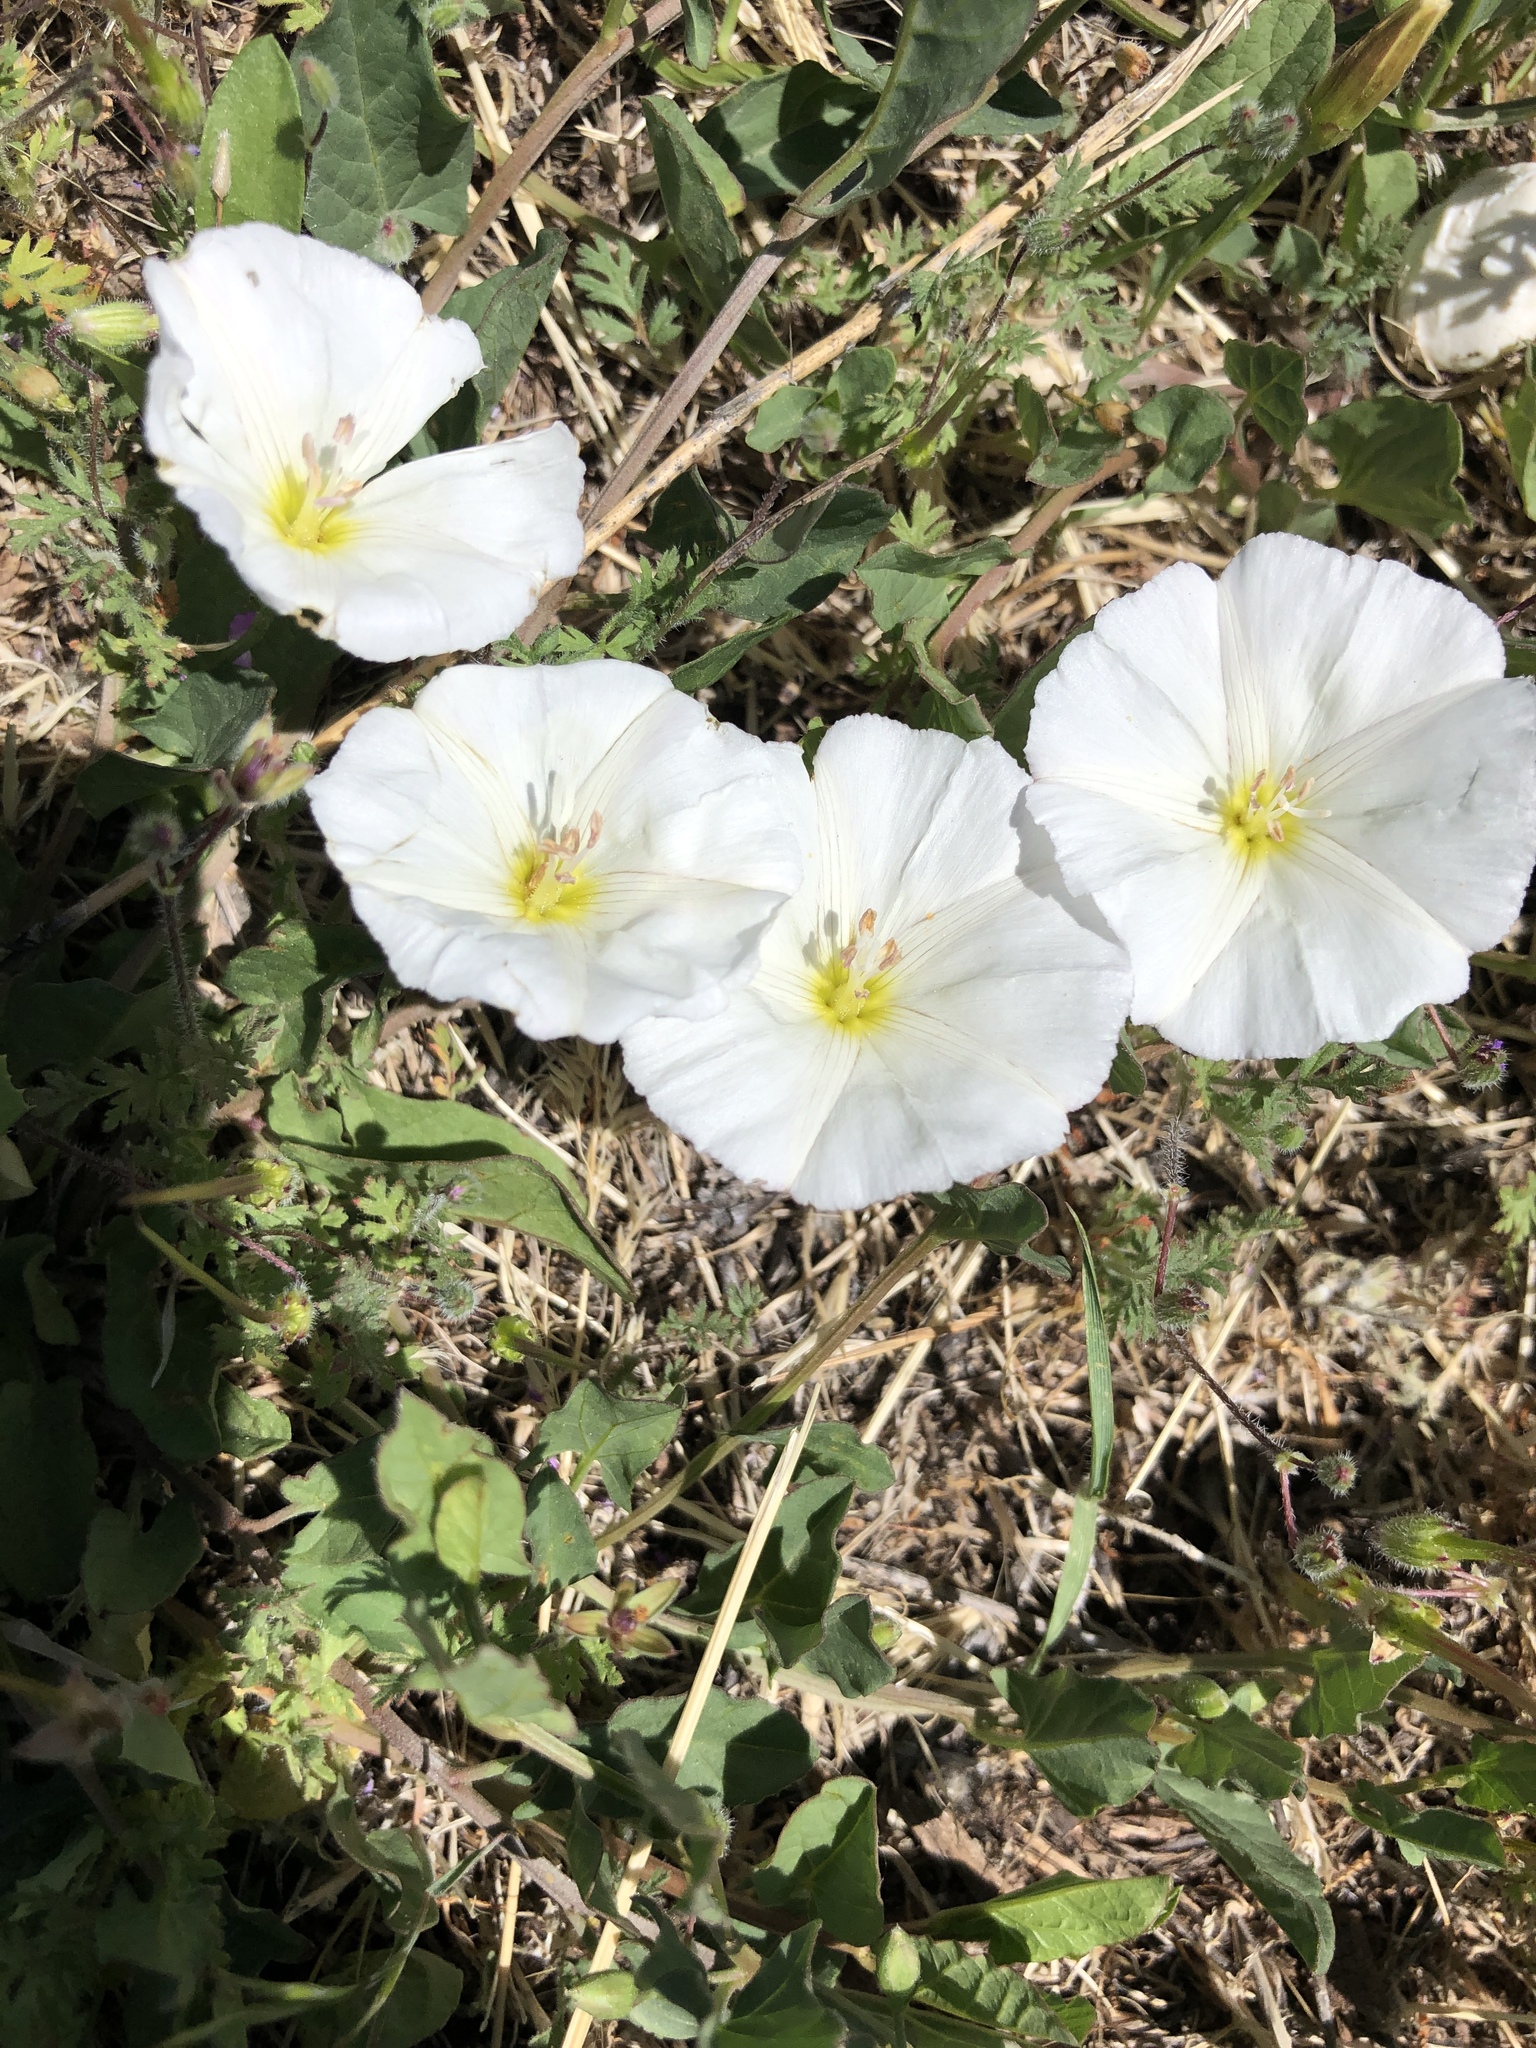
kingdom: Plantae
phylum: Tracheophyta
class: Magnoliopsida
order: Solanales
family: Convolvulaceae
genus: Convolvulus
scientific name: Convolvulus arvensis
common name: Field bindweed
